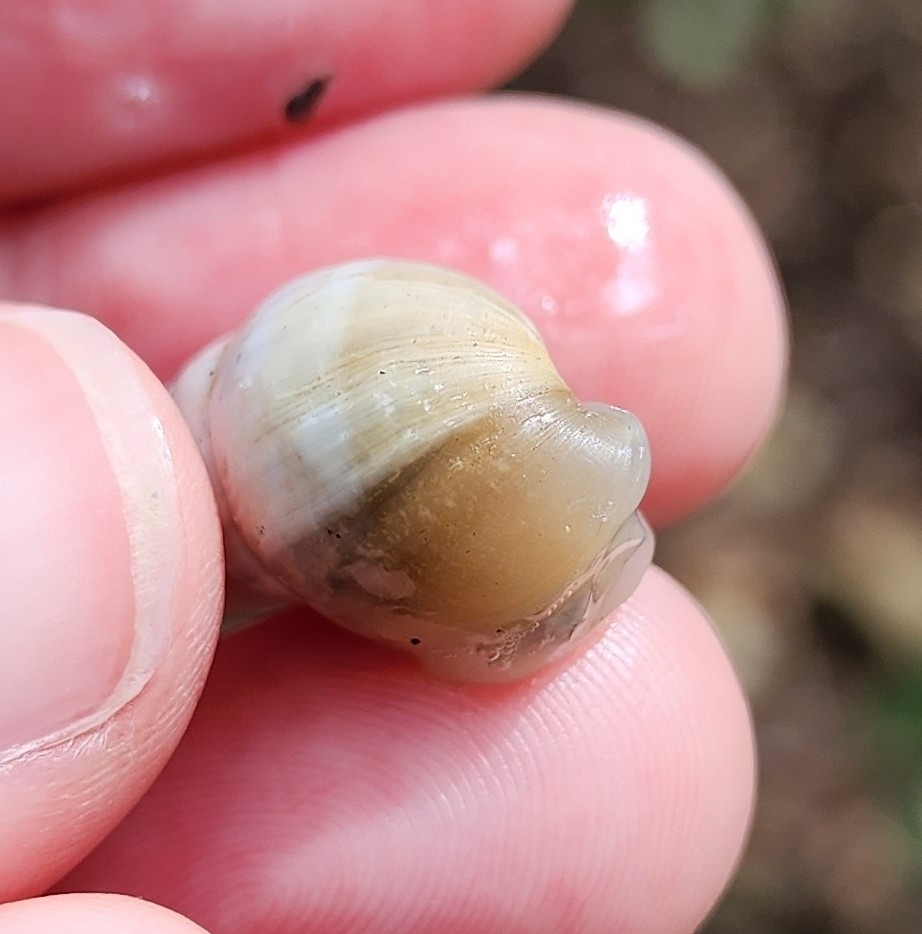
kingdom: Animalia
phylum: Mollusca
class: Gastropoda
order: Stylommatophora
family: Bulimulidae
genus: Rabdotus
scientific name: Rabdotus mooreanus
